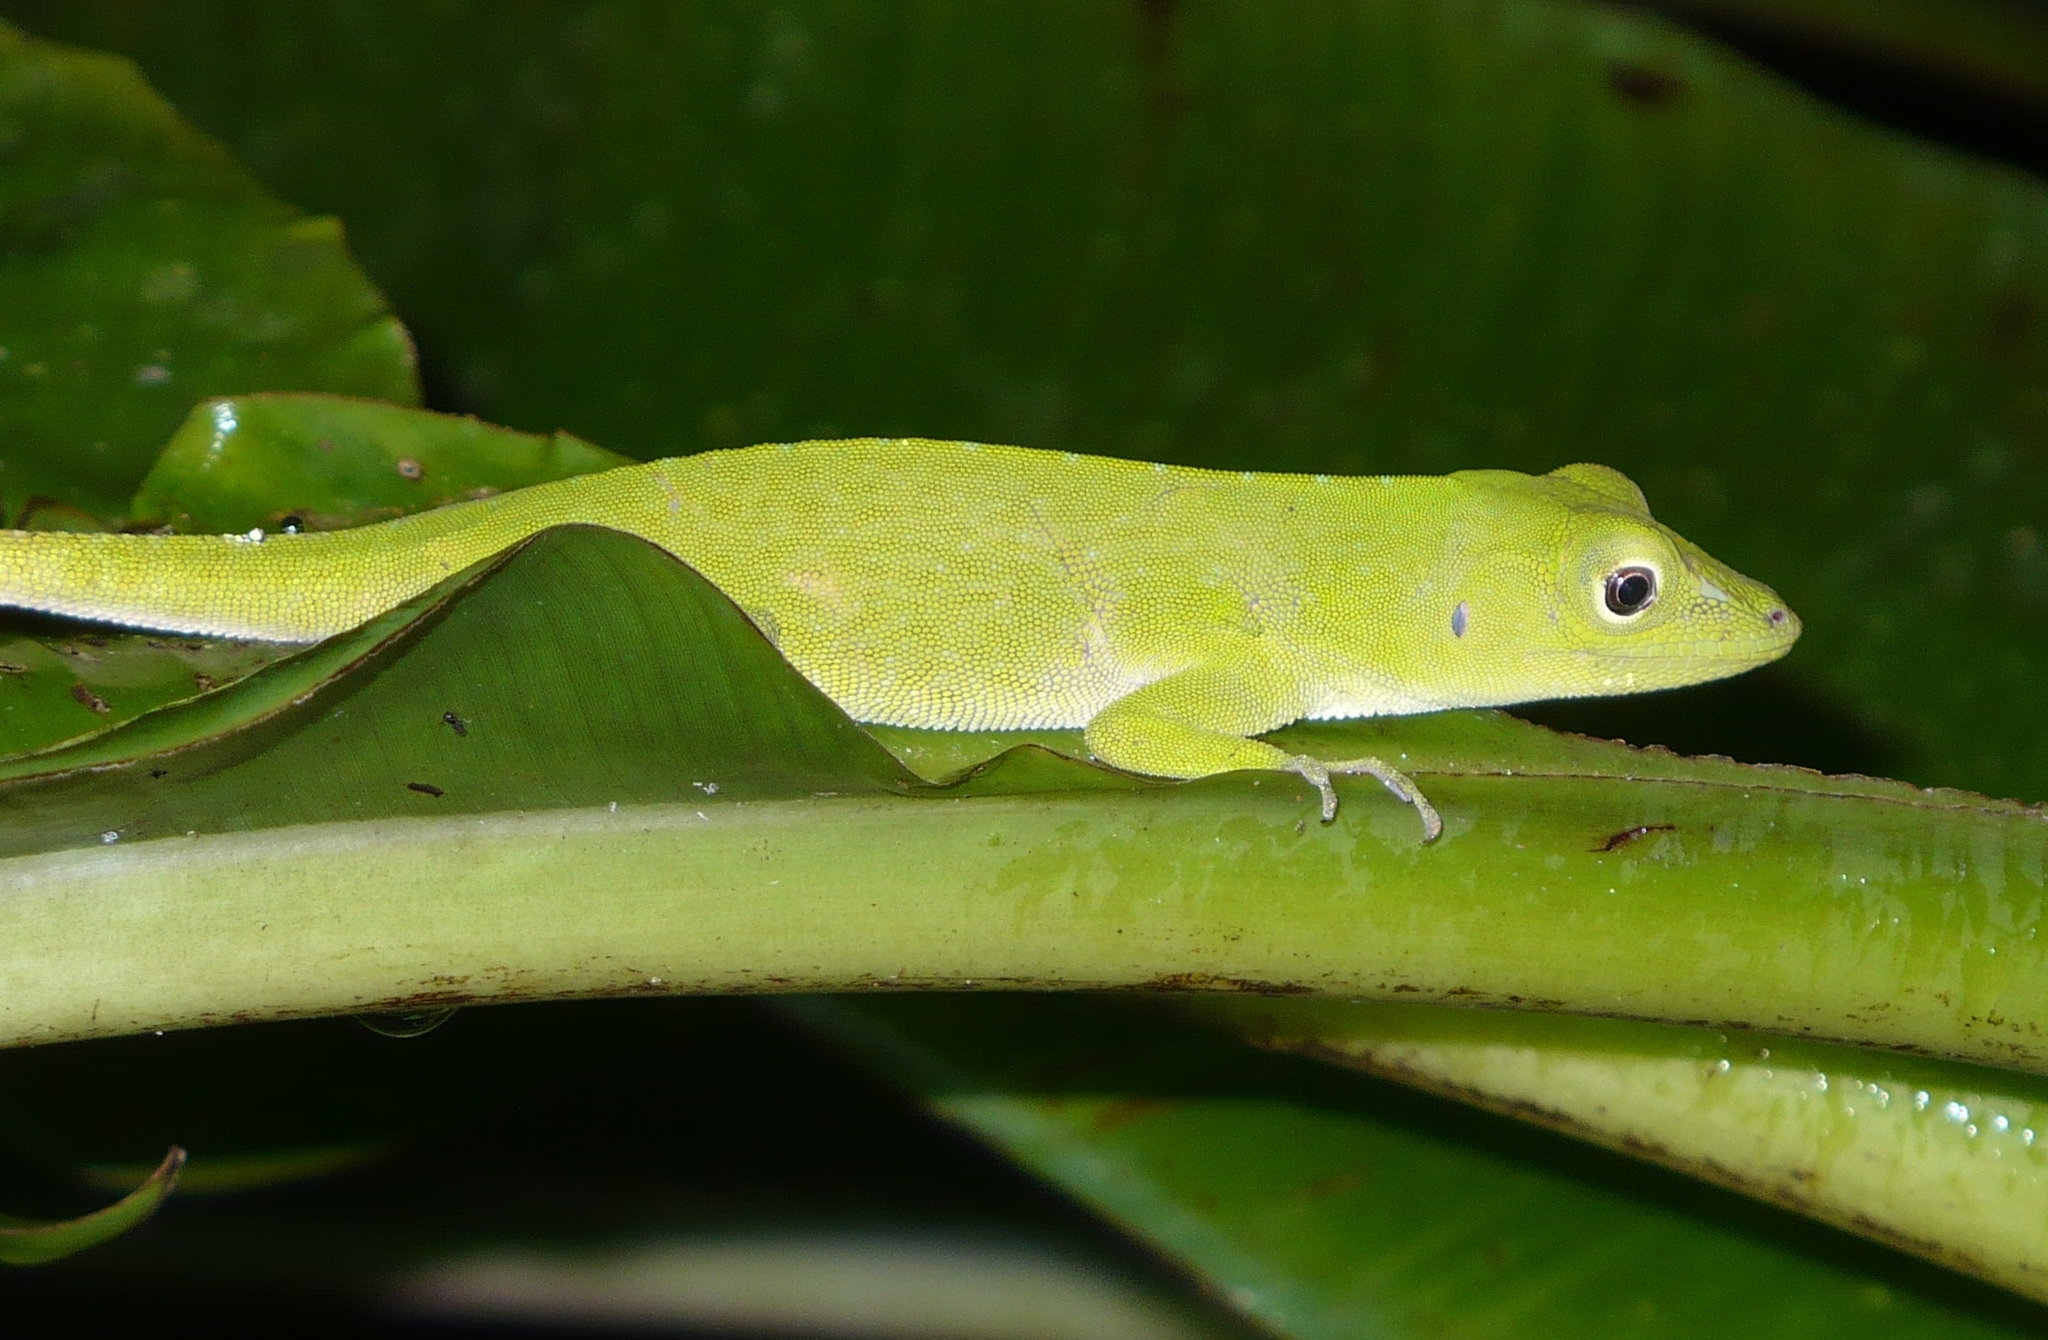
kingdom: Animalia
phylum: Chordata
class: Squamata
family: Dactyloidae
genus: Anolis
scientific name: Anolis biporcatus
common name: Giant green anole
